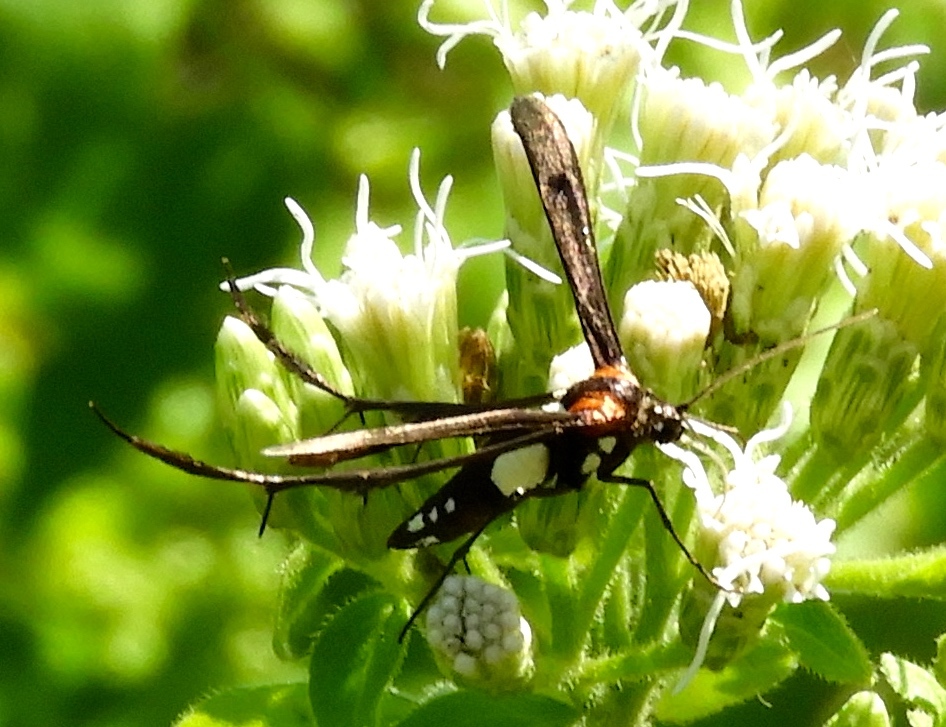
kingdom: Animalia
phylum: Arthropoda
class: Insecta
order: Lepidoptera
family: Pterophoridae
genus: Hellinsia
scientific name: Hellinsia chamelai
